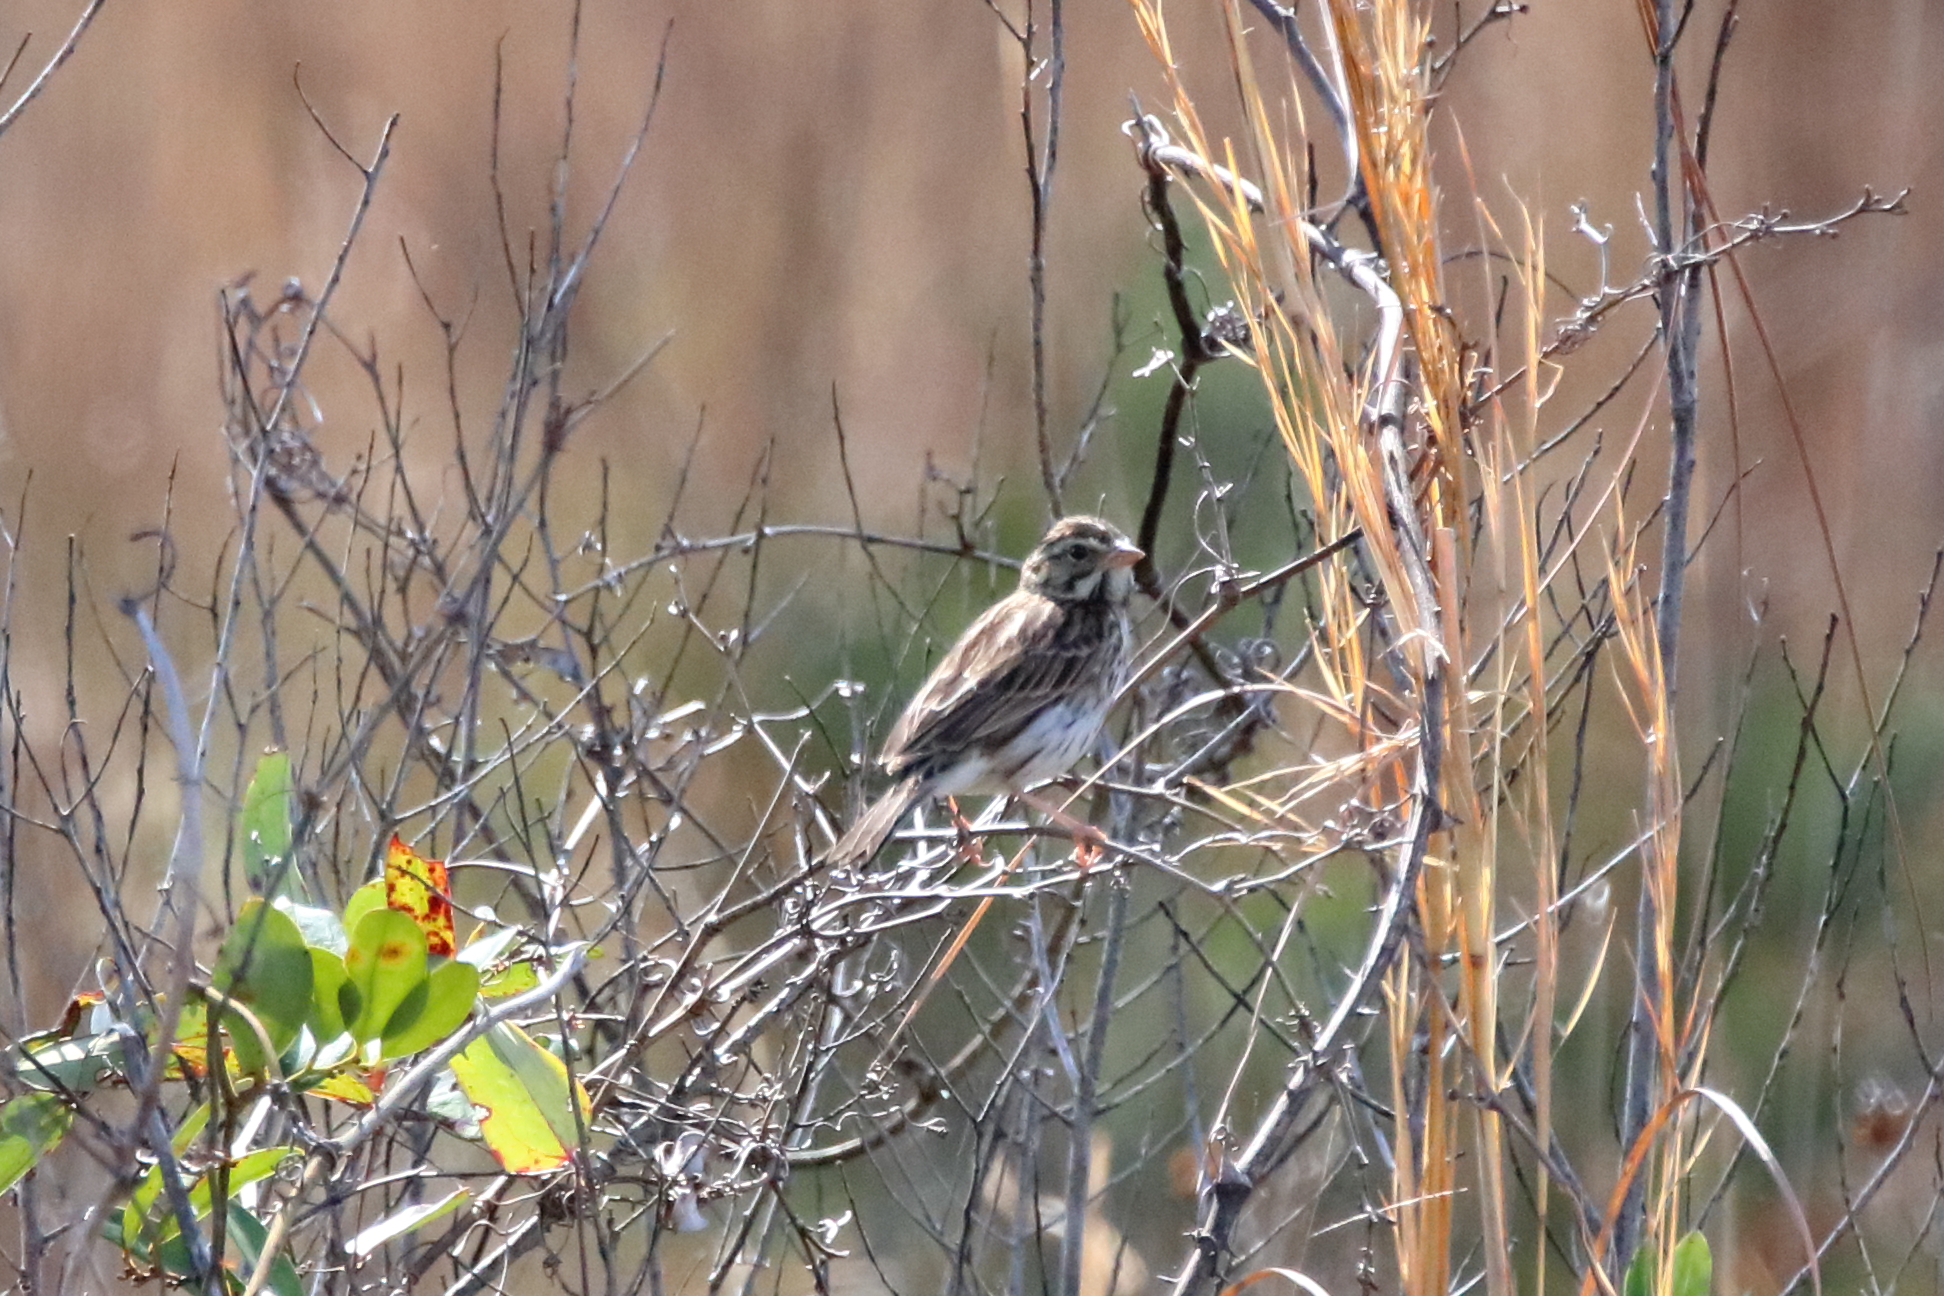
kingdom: Animalia
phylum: Chordata
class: Aves
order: Passeriformes
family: Passerellidae
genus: Passerculus
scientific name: Passerculus sandwichensis
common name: Savannah sparrow
